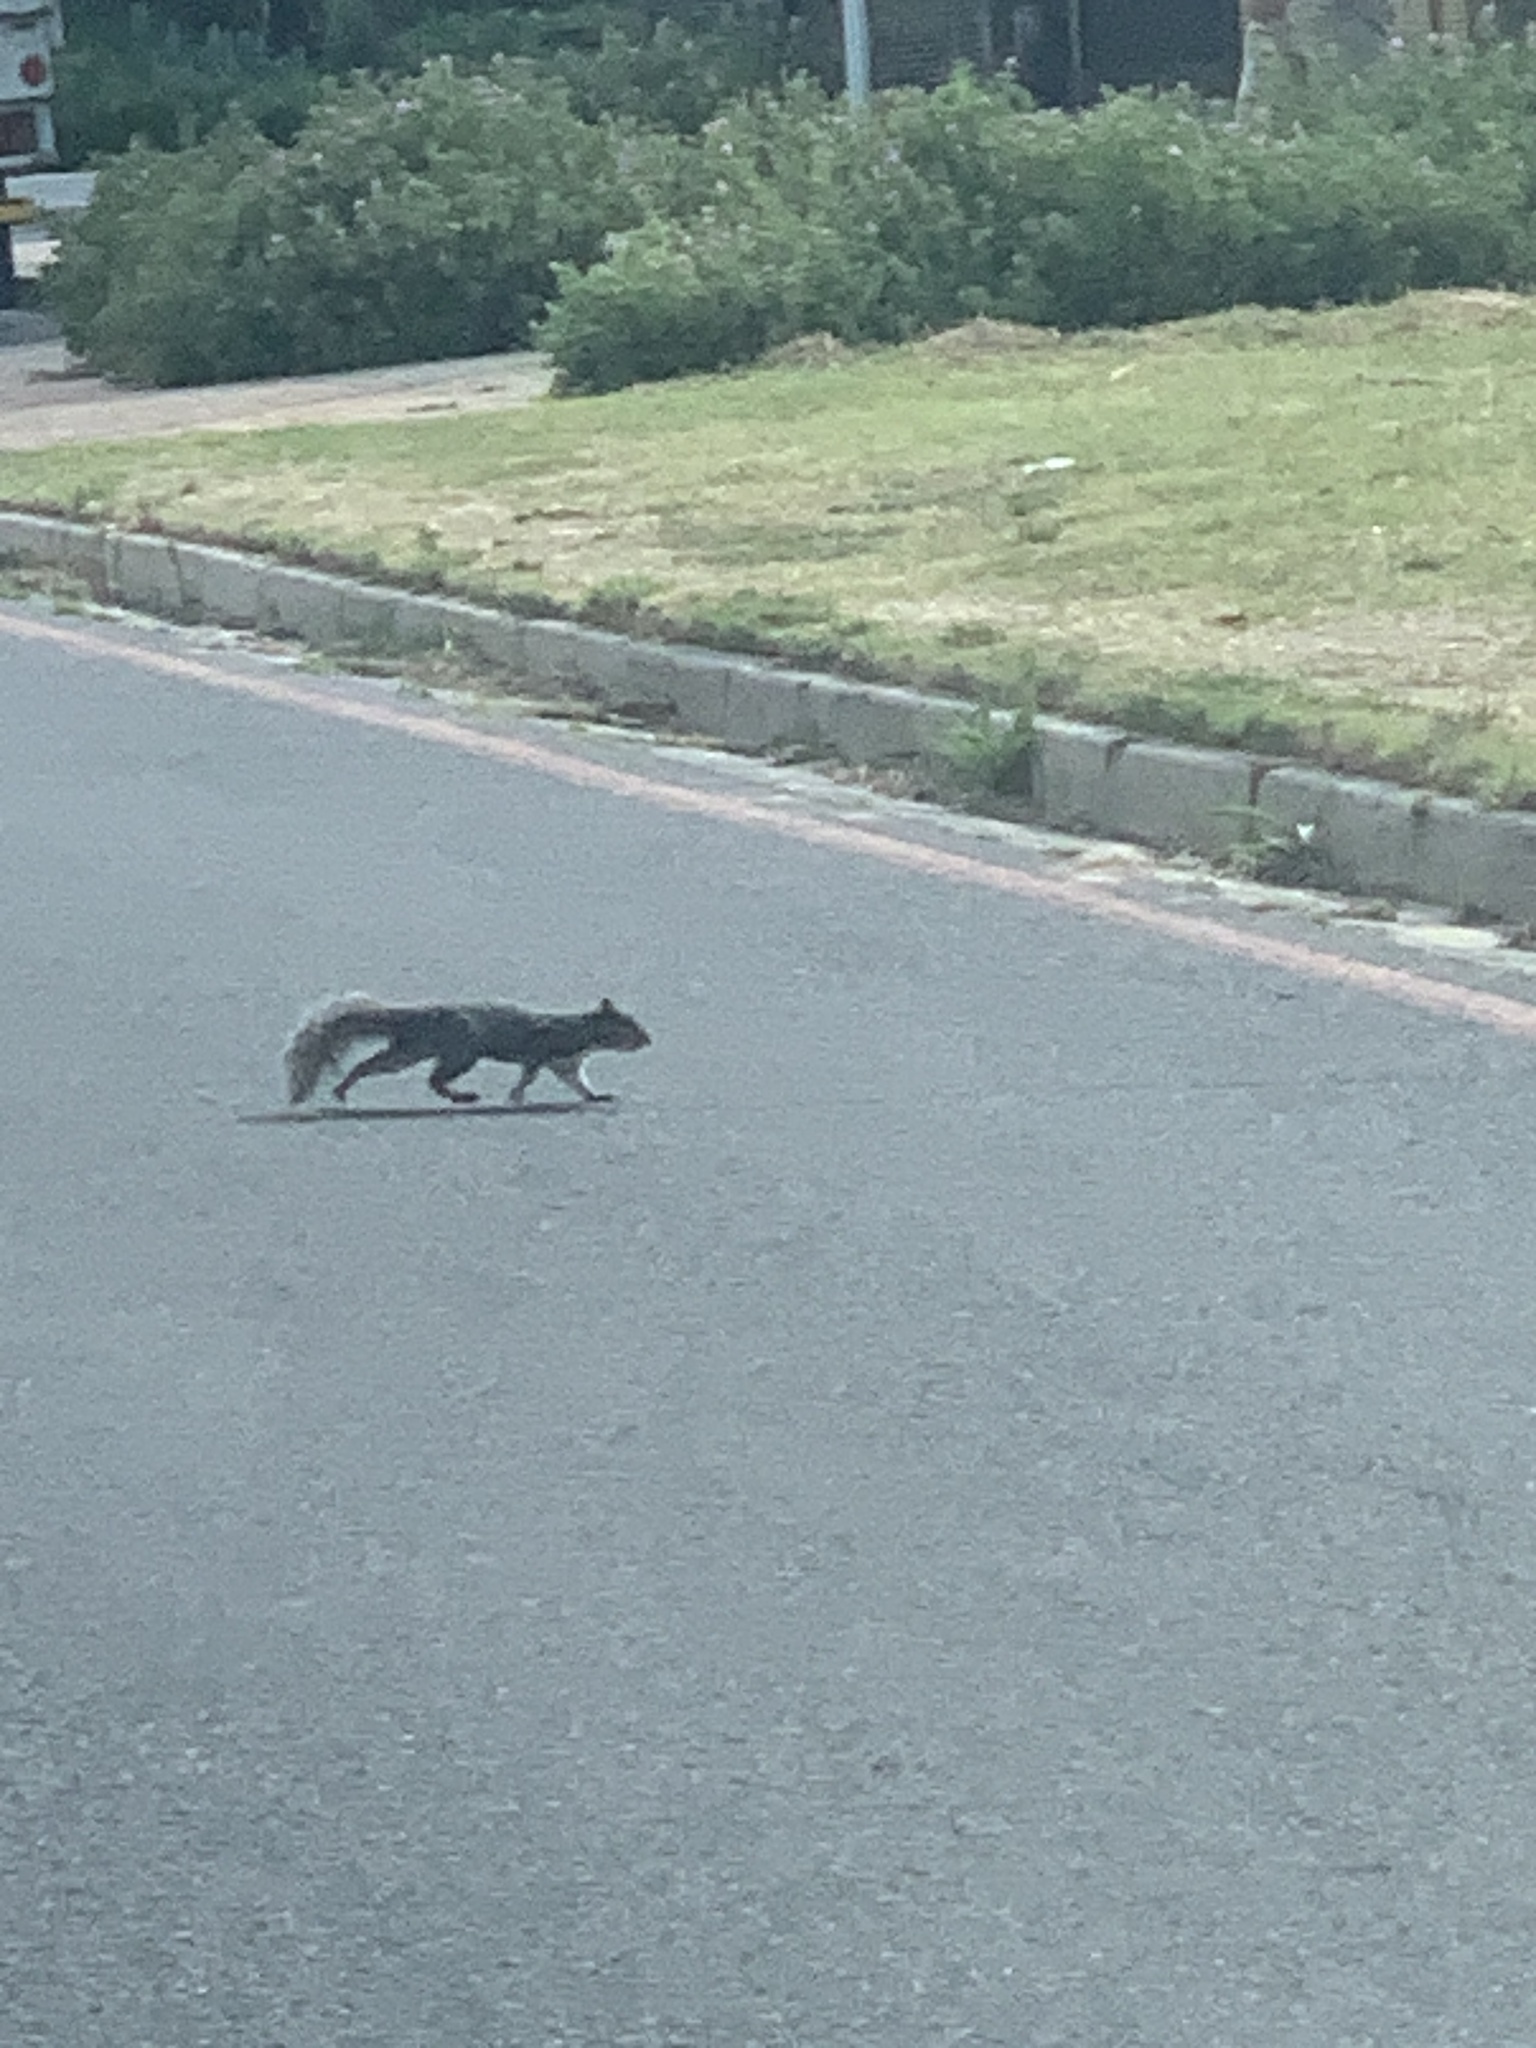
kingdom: Animalia
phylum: Chordata
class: Mammalia
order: Rodentia
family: Sciuridae
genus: Sciurus
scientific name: Sciurus carolinensis
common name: Eastern gray squirrel
